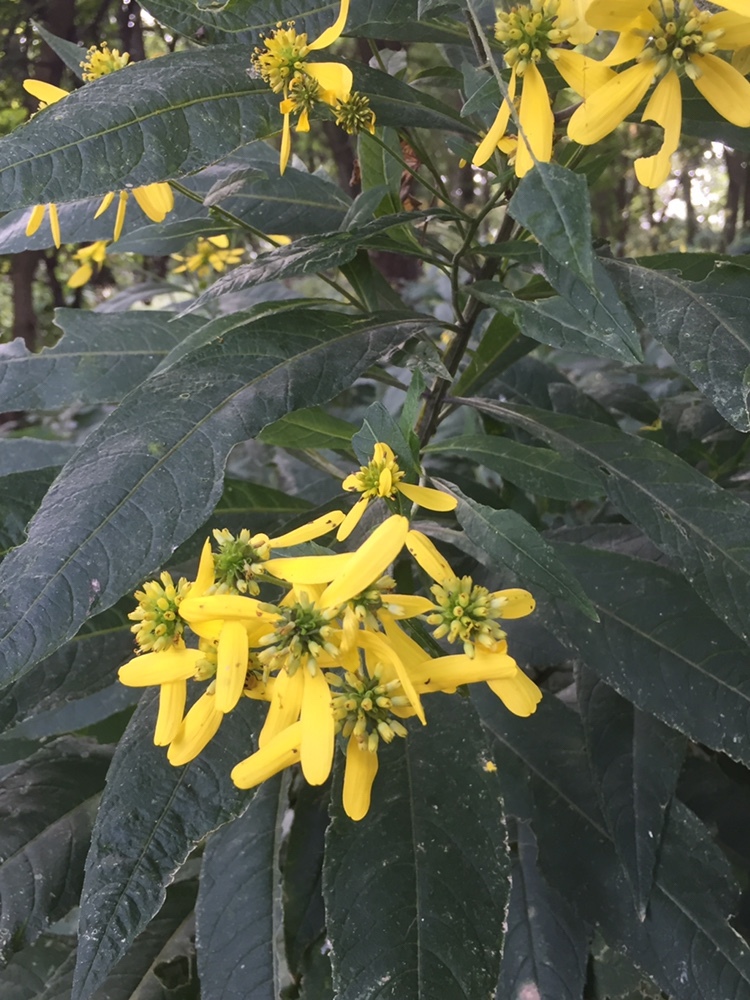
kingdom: Plantae
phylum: Tracheophyta
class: Magnoliopsida
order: Asterales
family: Asteraceae
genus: Verbesina
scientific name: Verbesina alternifolia
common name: Wingstem
